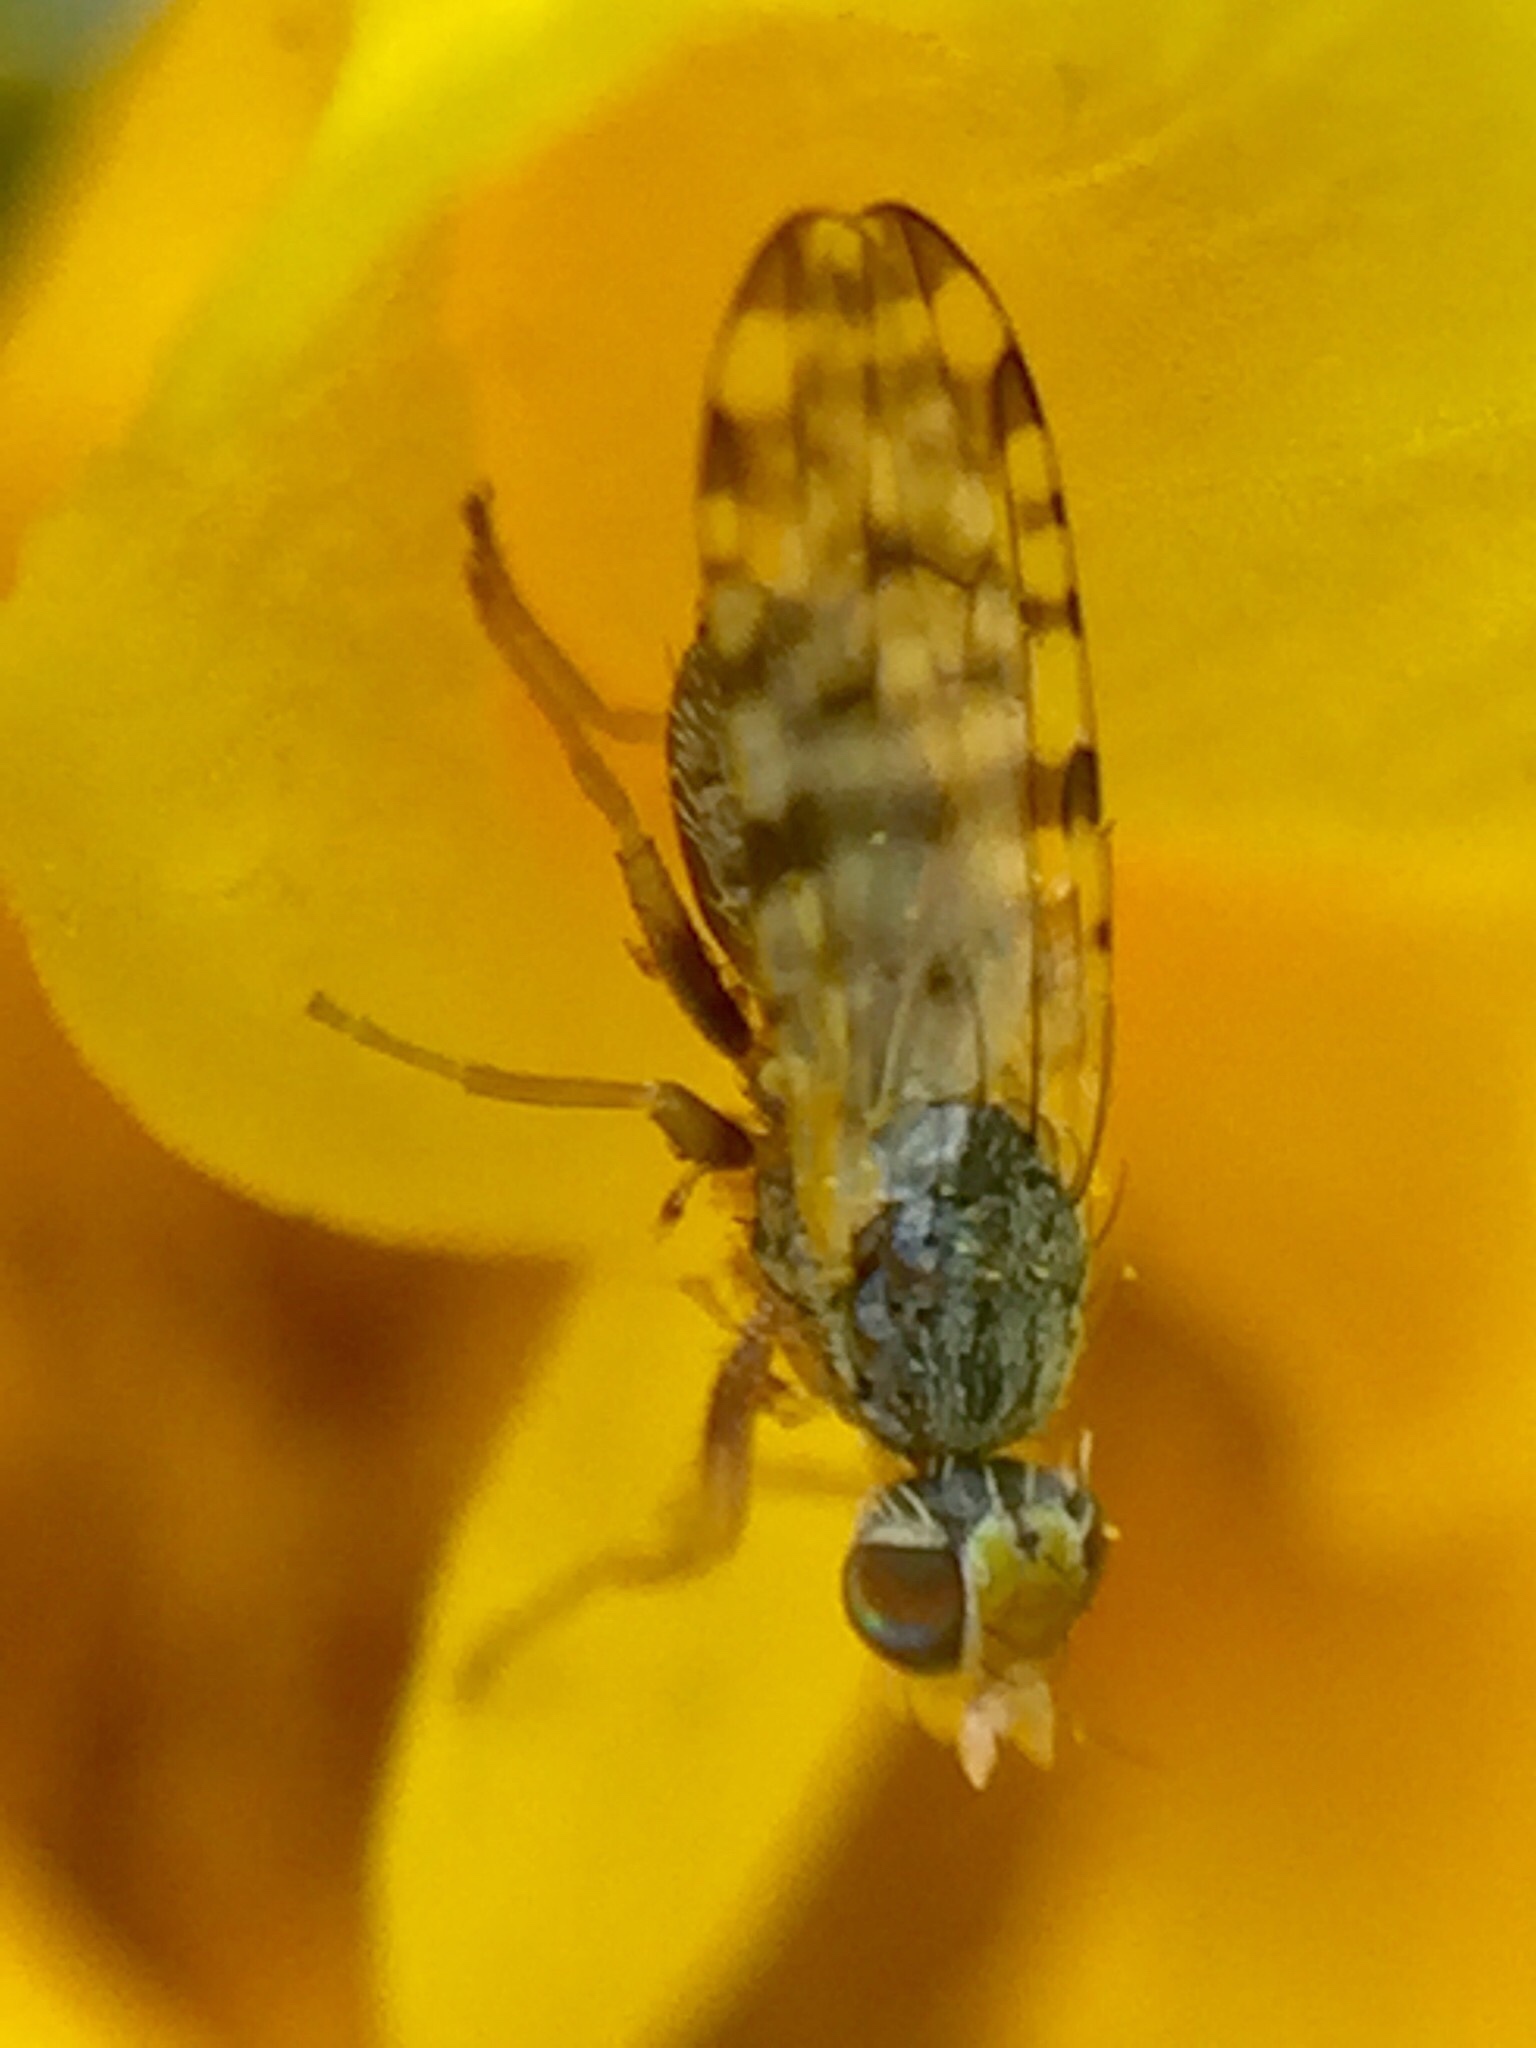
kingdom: Animalia
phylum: Arthropoda
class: Insecta
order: Diptera
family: Tephritidae
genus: Dioxyna
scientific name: Dioxyna sororcula
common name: Fruit fly
